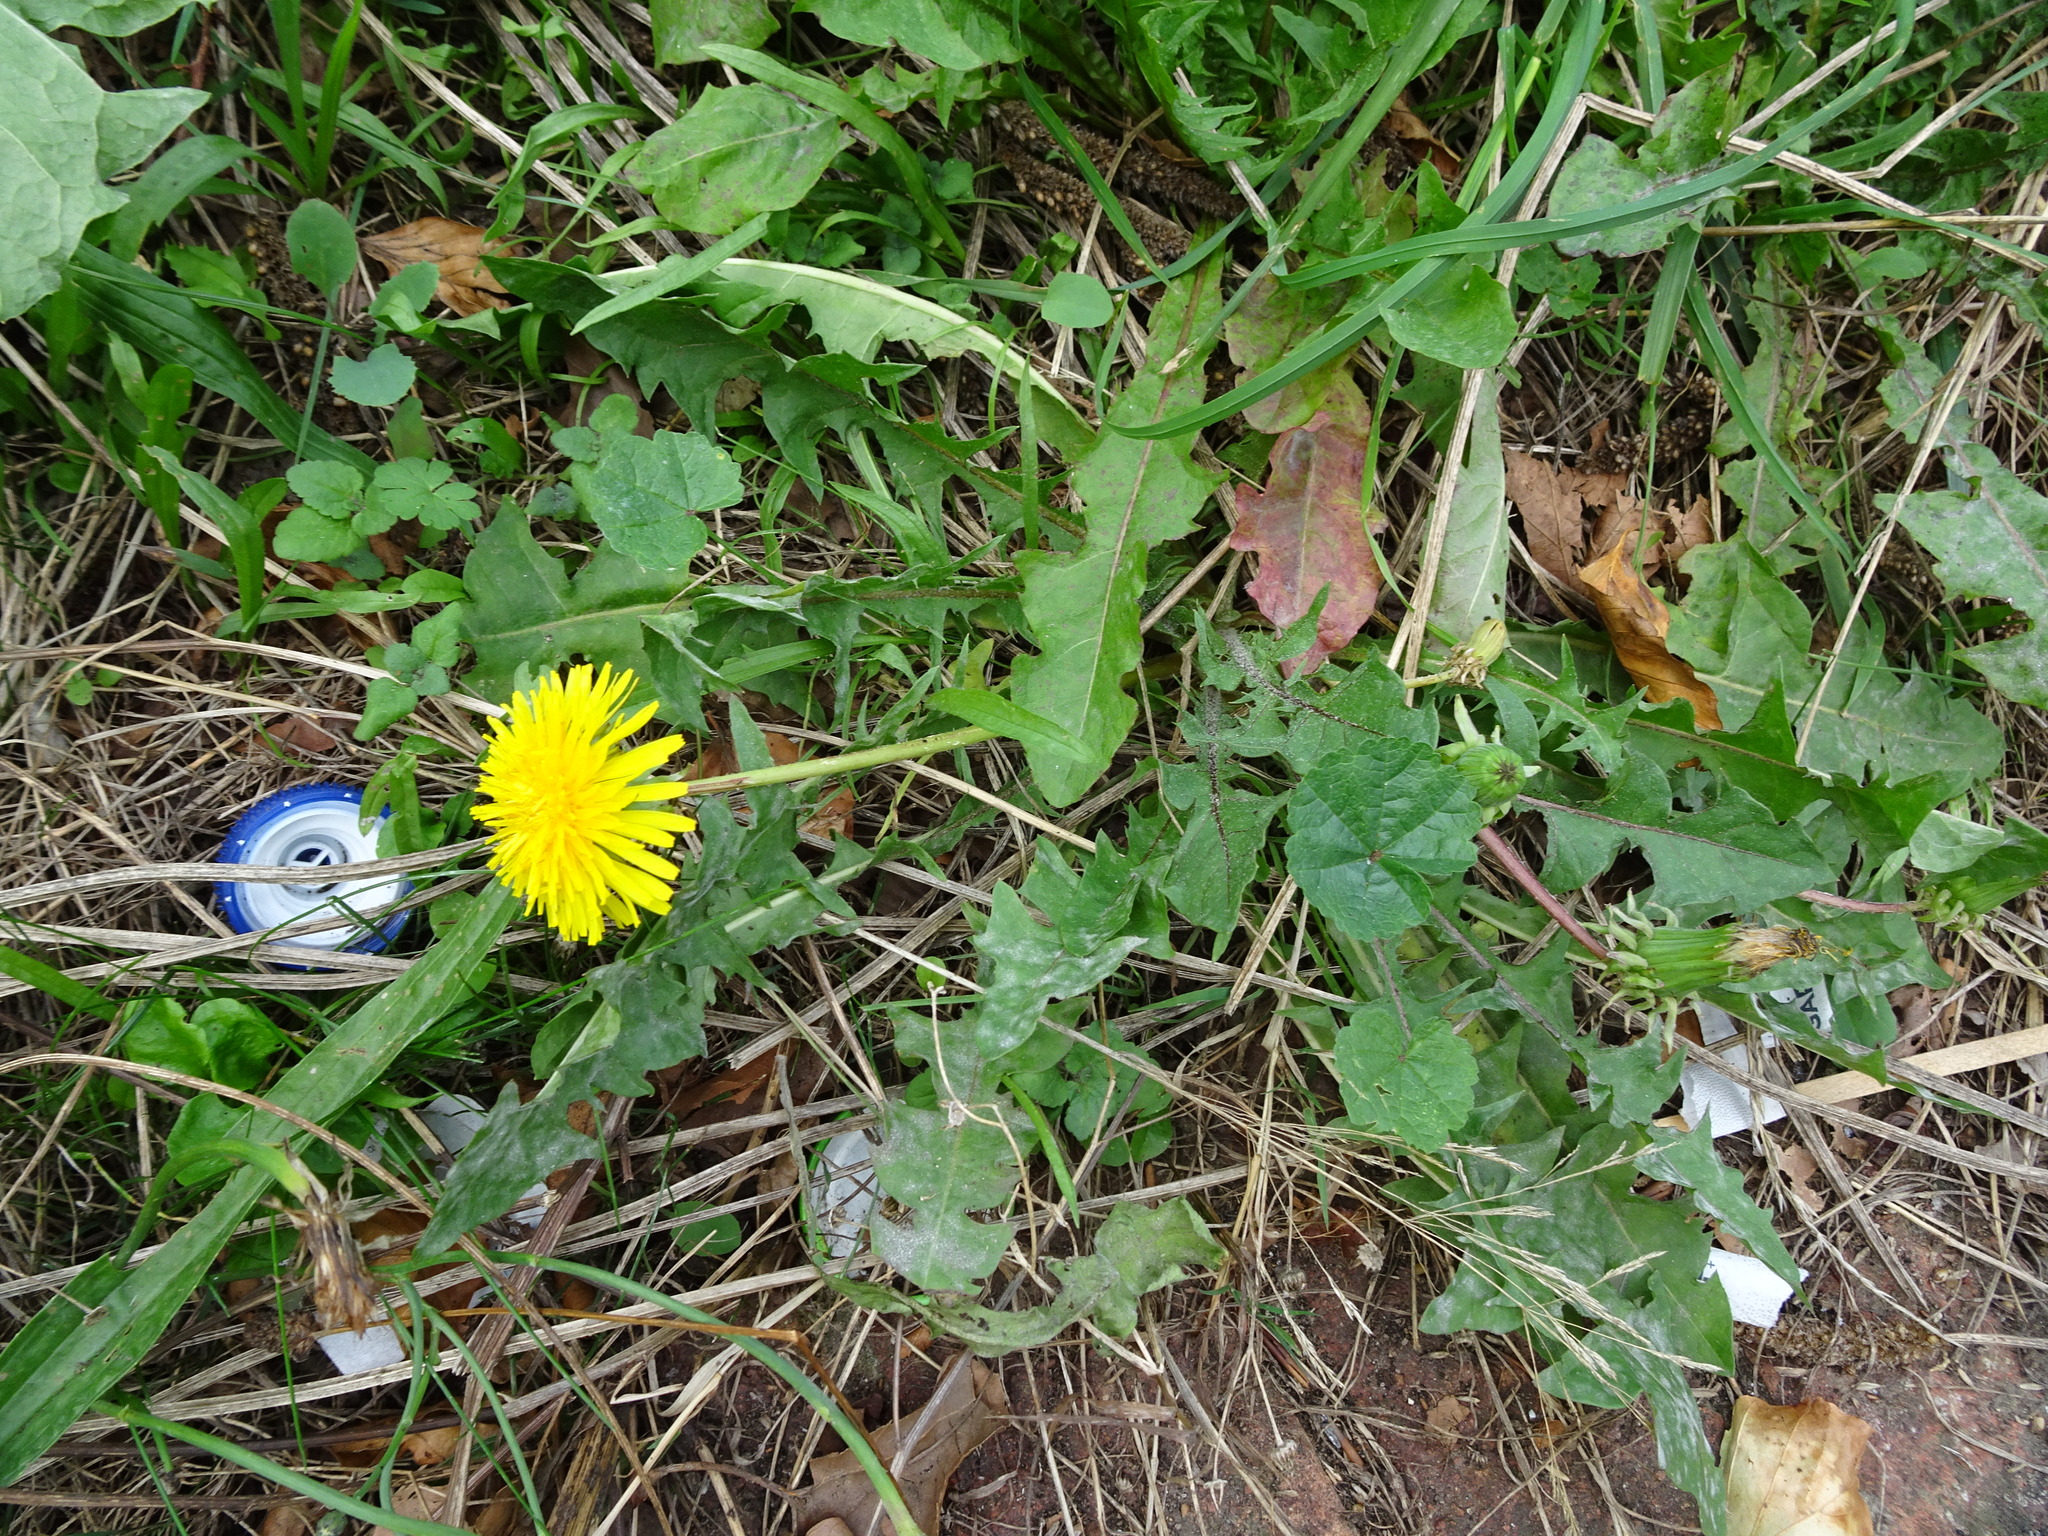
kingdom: Plantae
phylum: Tracheophyta
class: Magnoliopsida
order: Asterales
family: Asteraceae
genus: Taraxacum
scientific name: Taraxacum officinale
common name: Common dandelion
